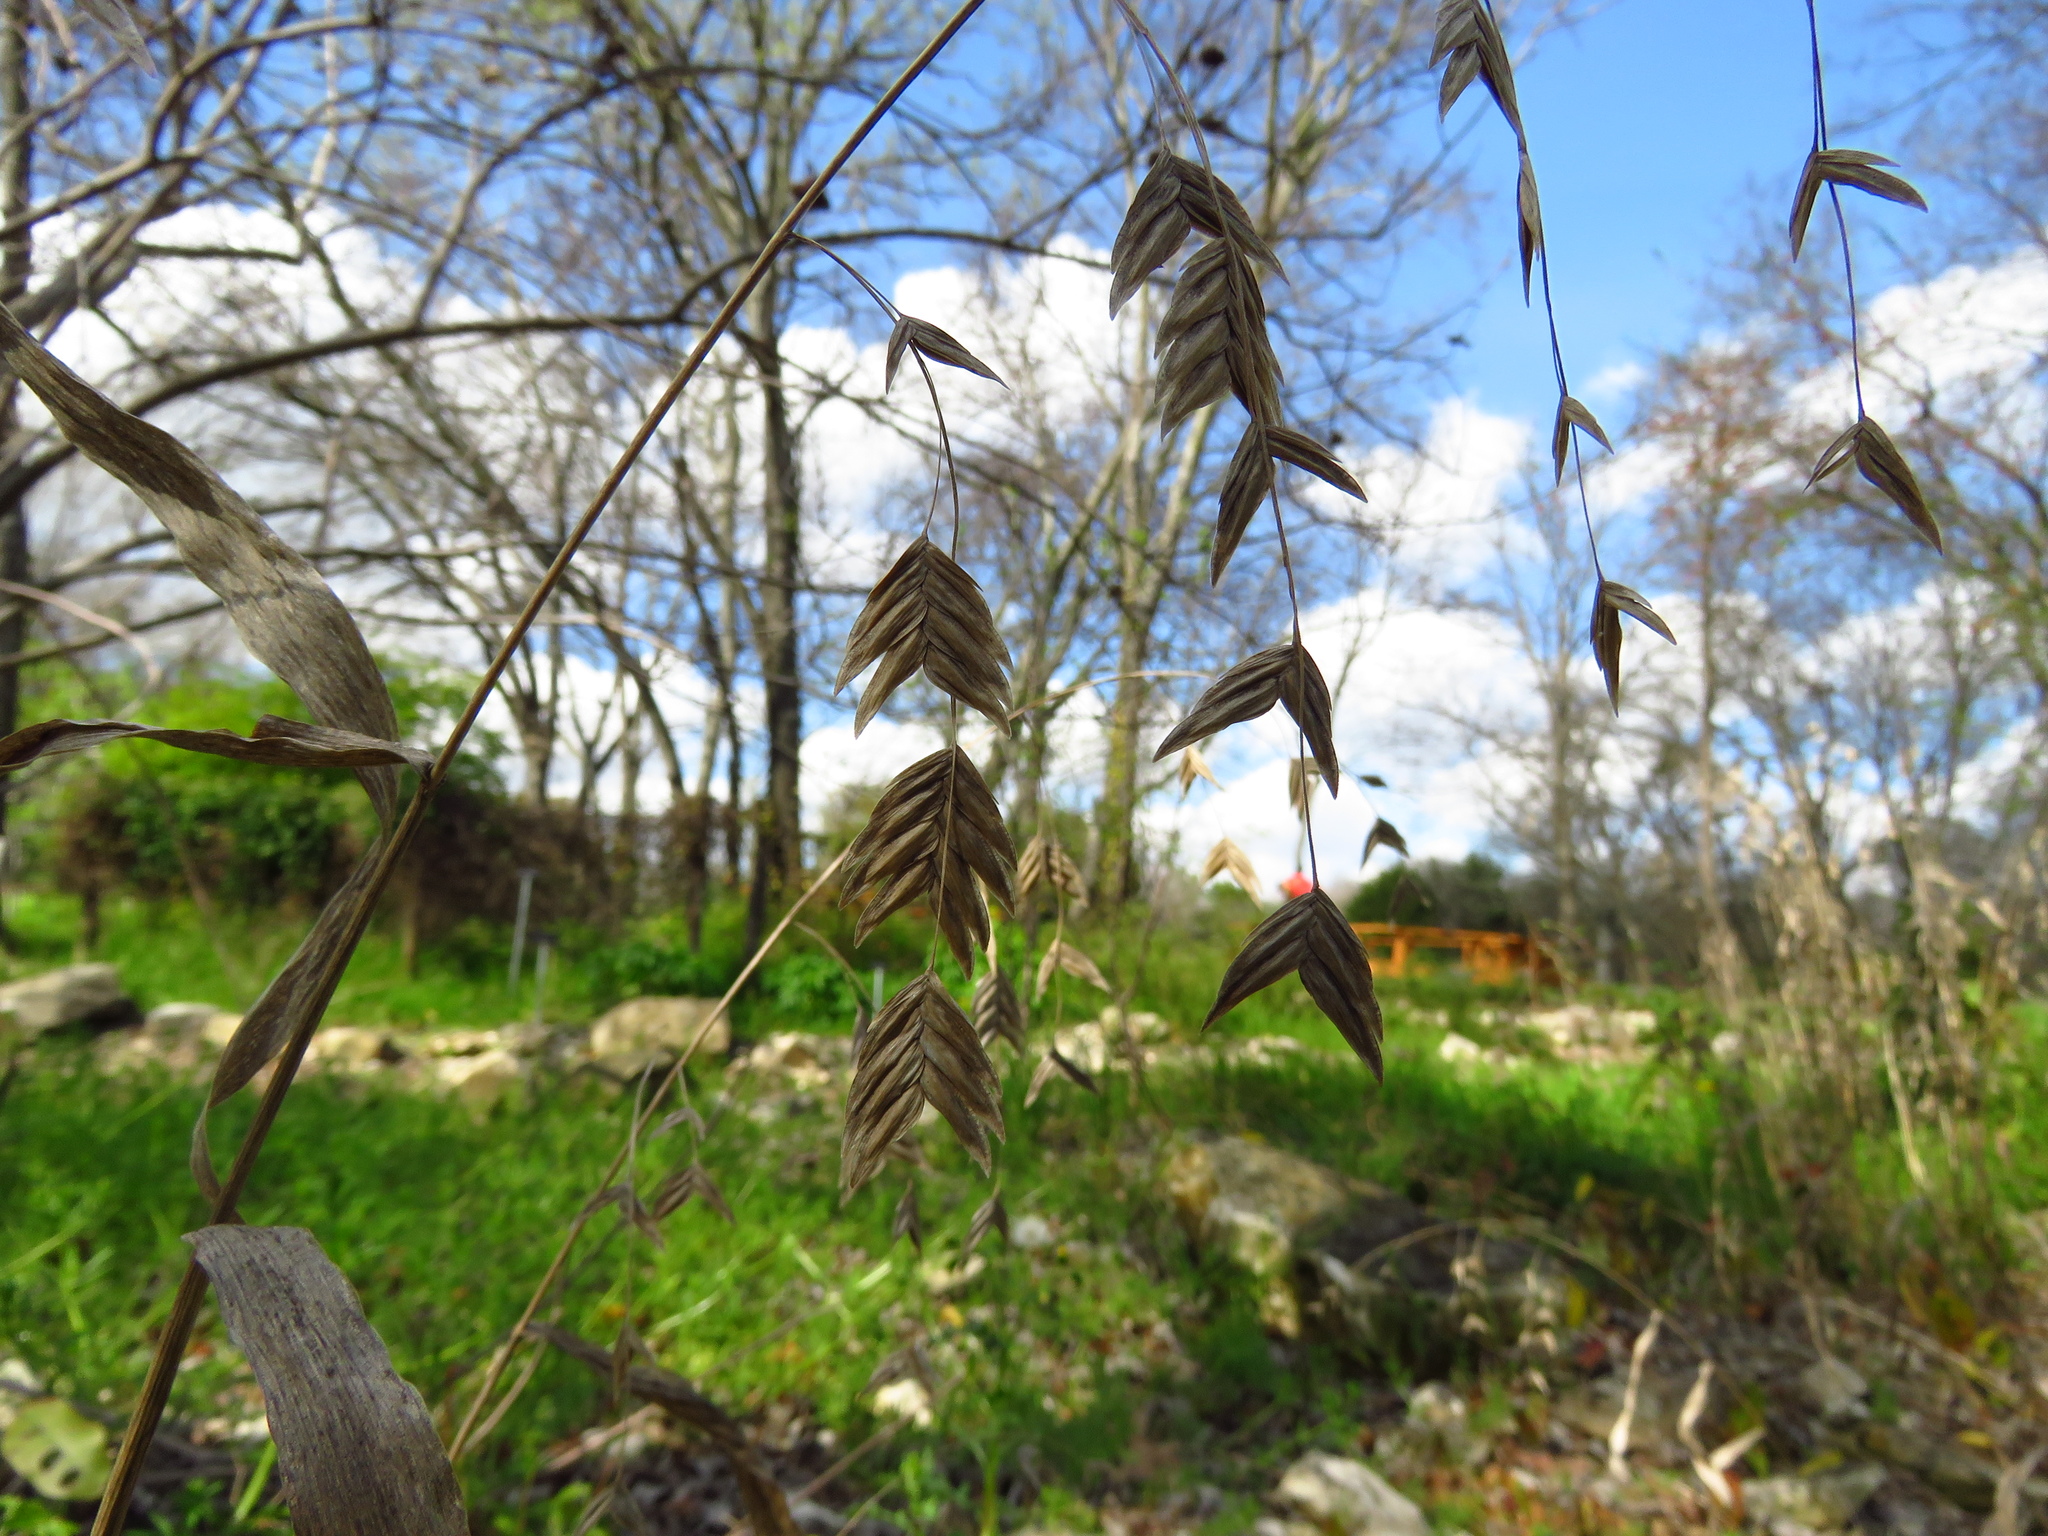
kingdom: Plantae
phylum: Tracheophyta
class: Liliopsida
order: Poales
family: Poaceae
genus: Chasmanthium
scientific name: Chasmanthium latifolium
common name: Broad-leaved chasmanthium
